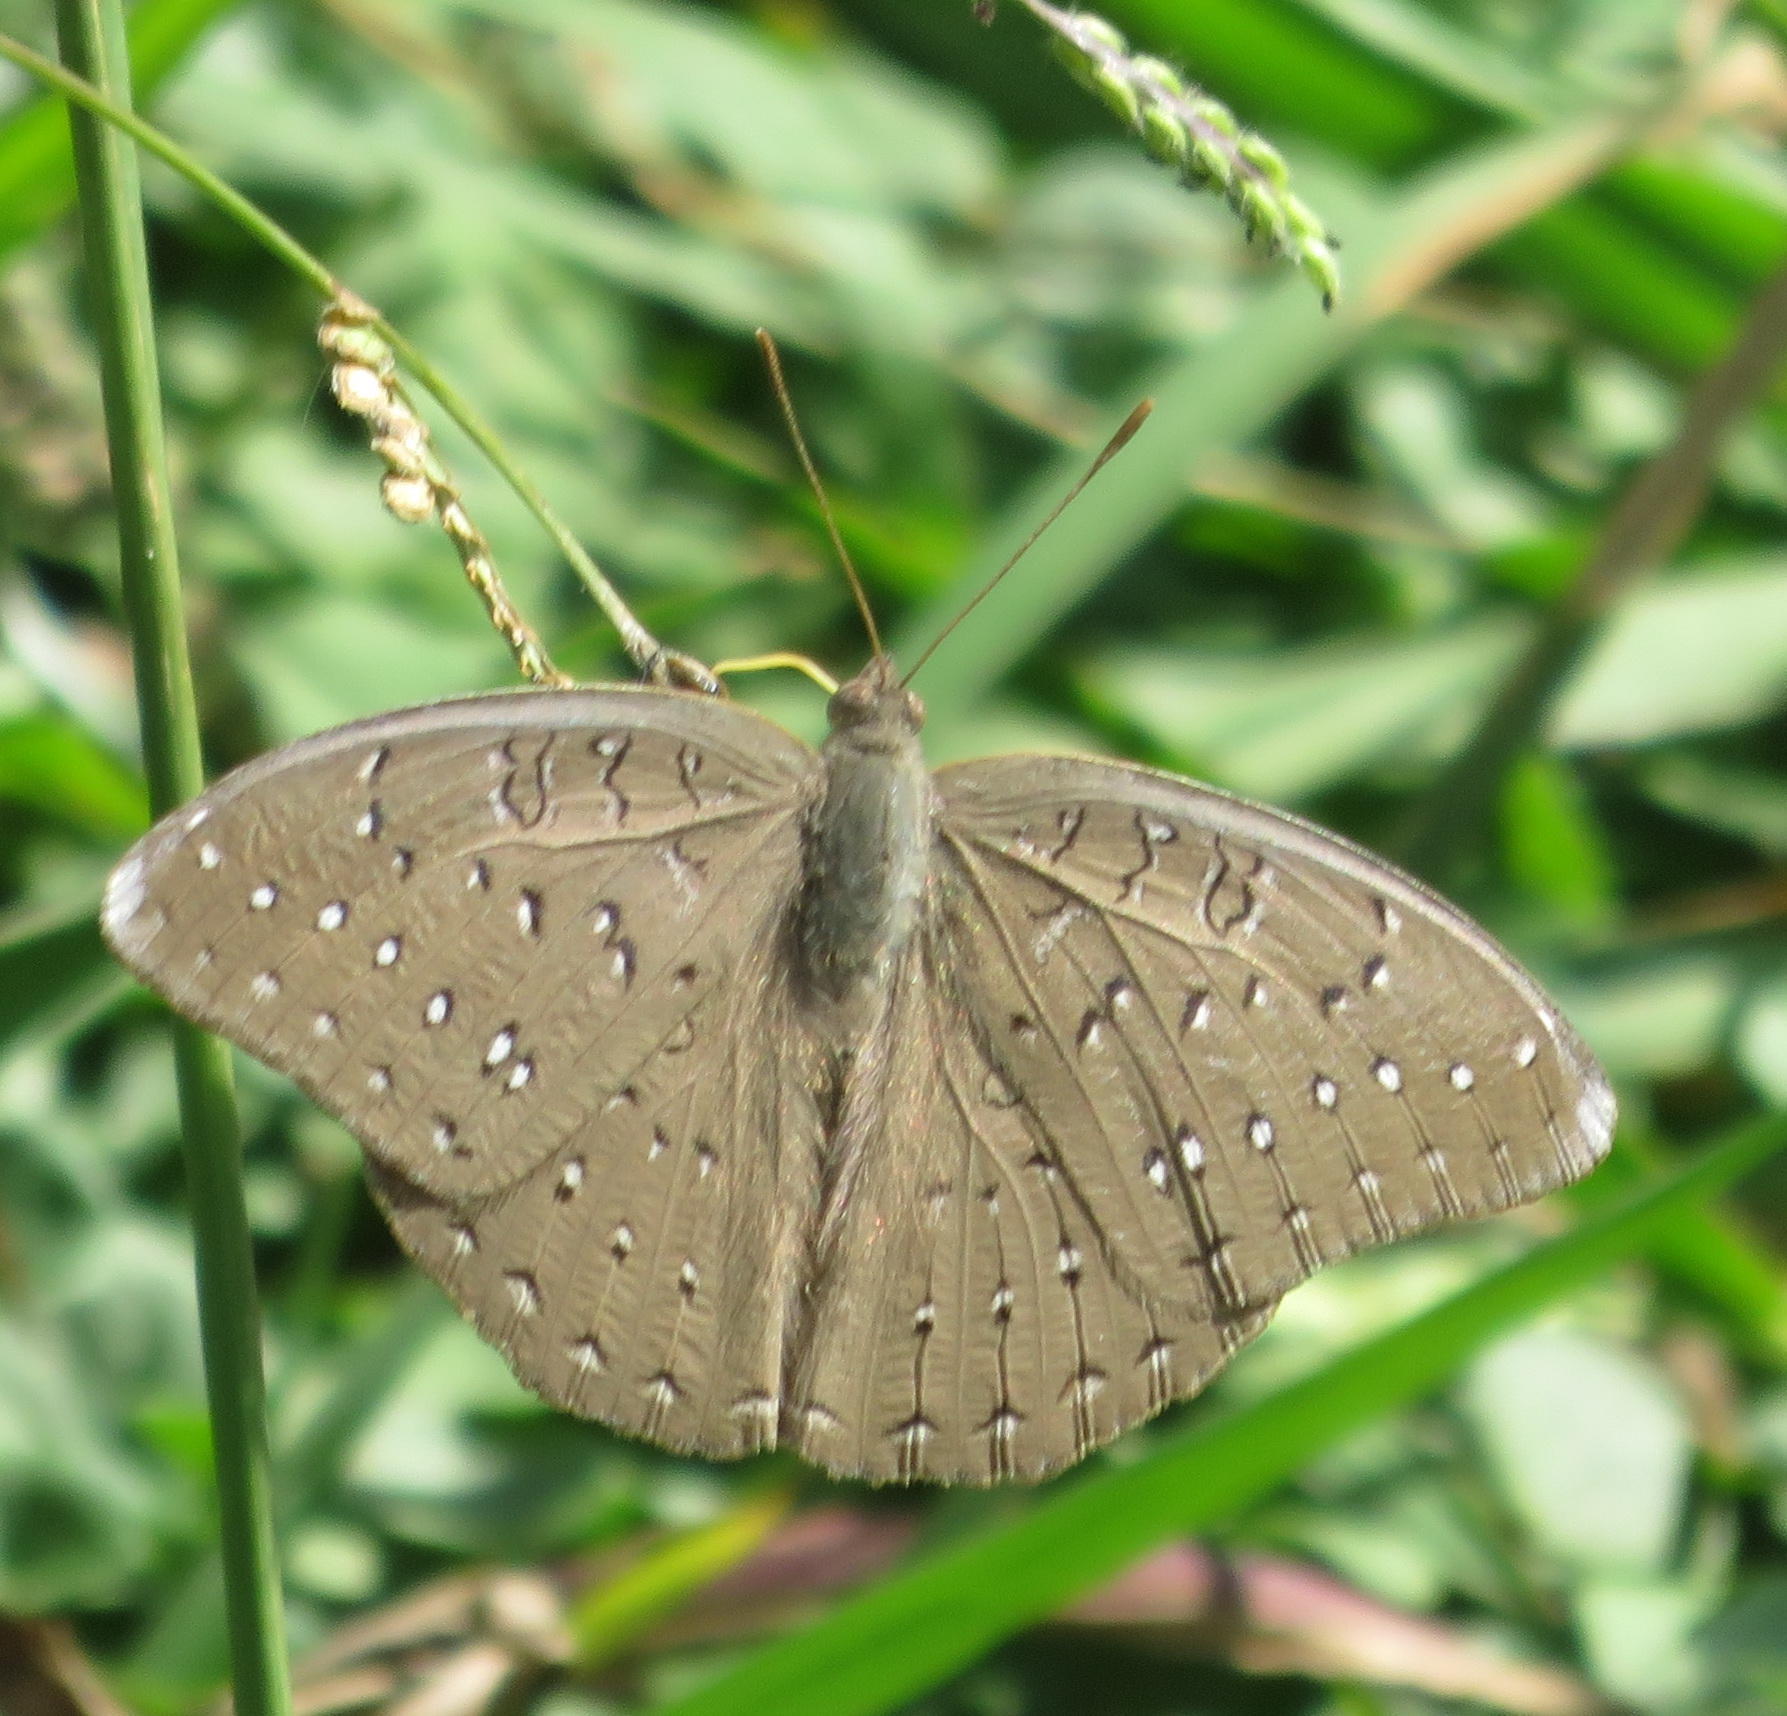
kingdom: Animalia
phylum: Arthropoda
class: Insecta
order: Lepidoptera
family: Nymphalidae
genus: Hamanumida
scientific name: Hamanumida daedalus
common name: Guinea-fowl butterfly
